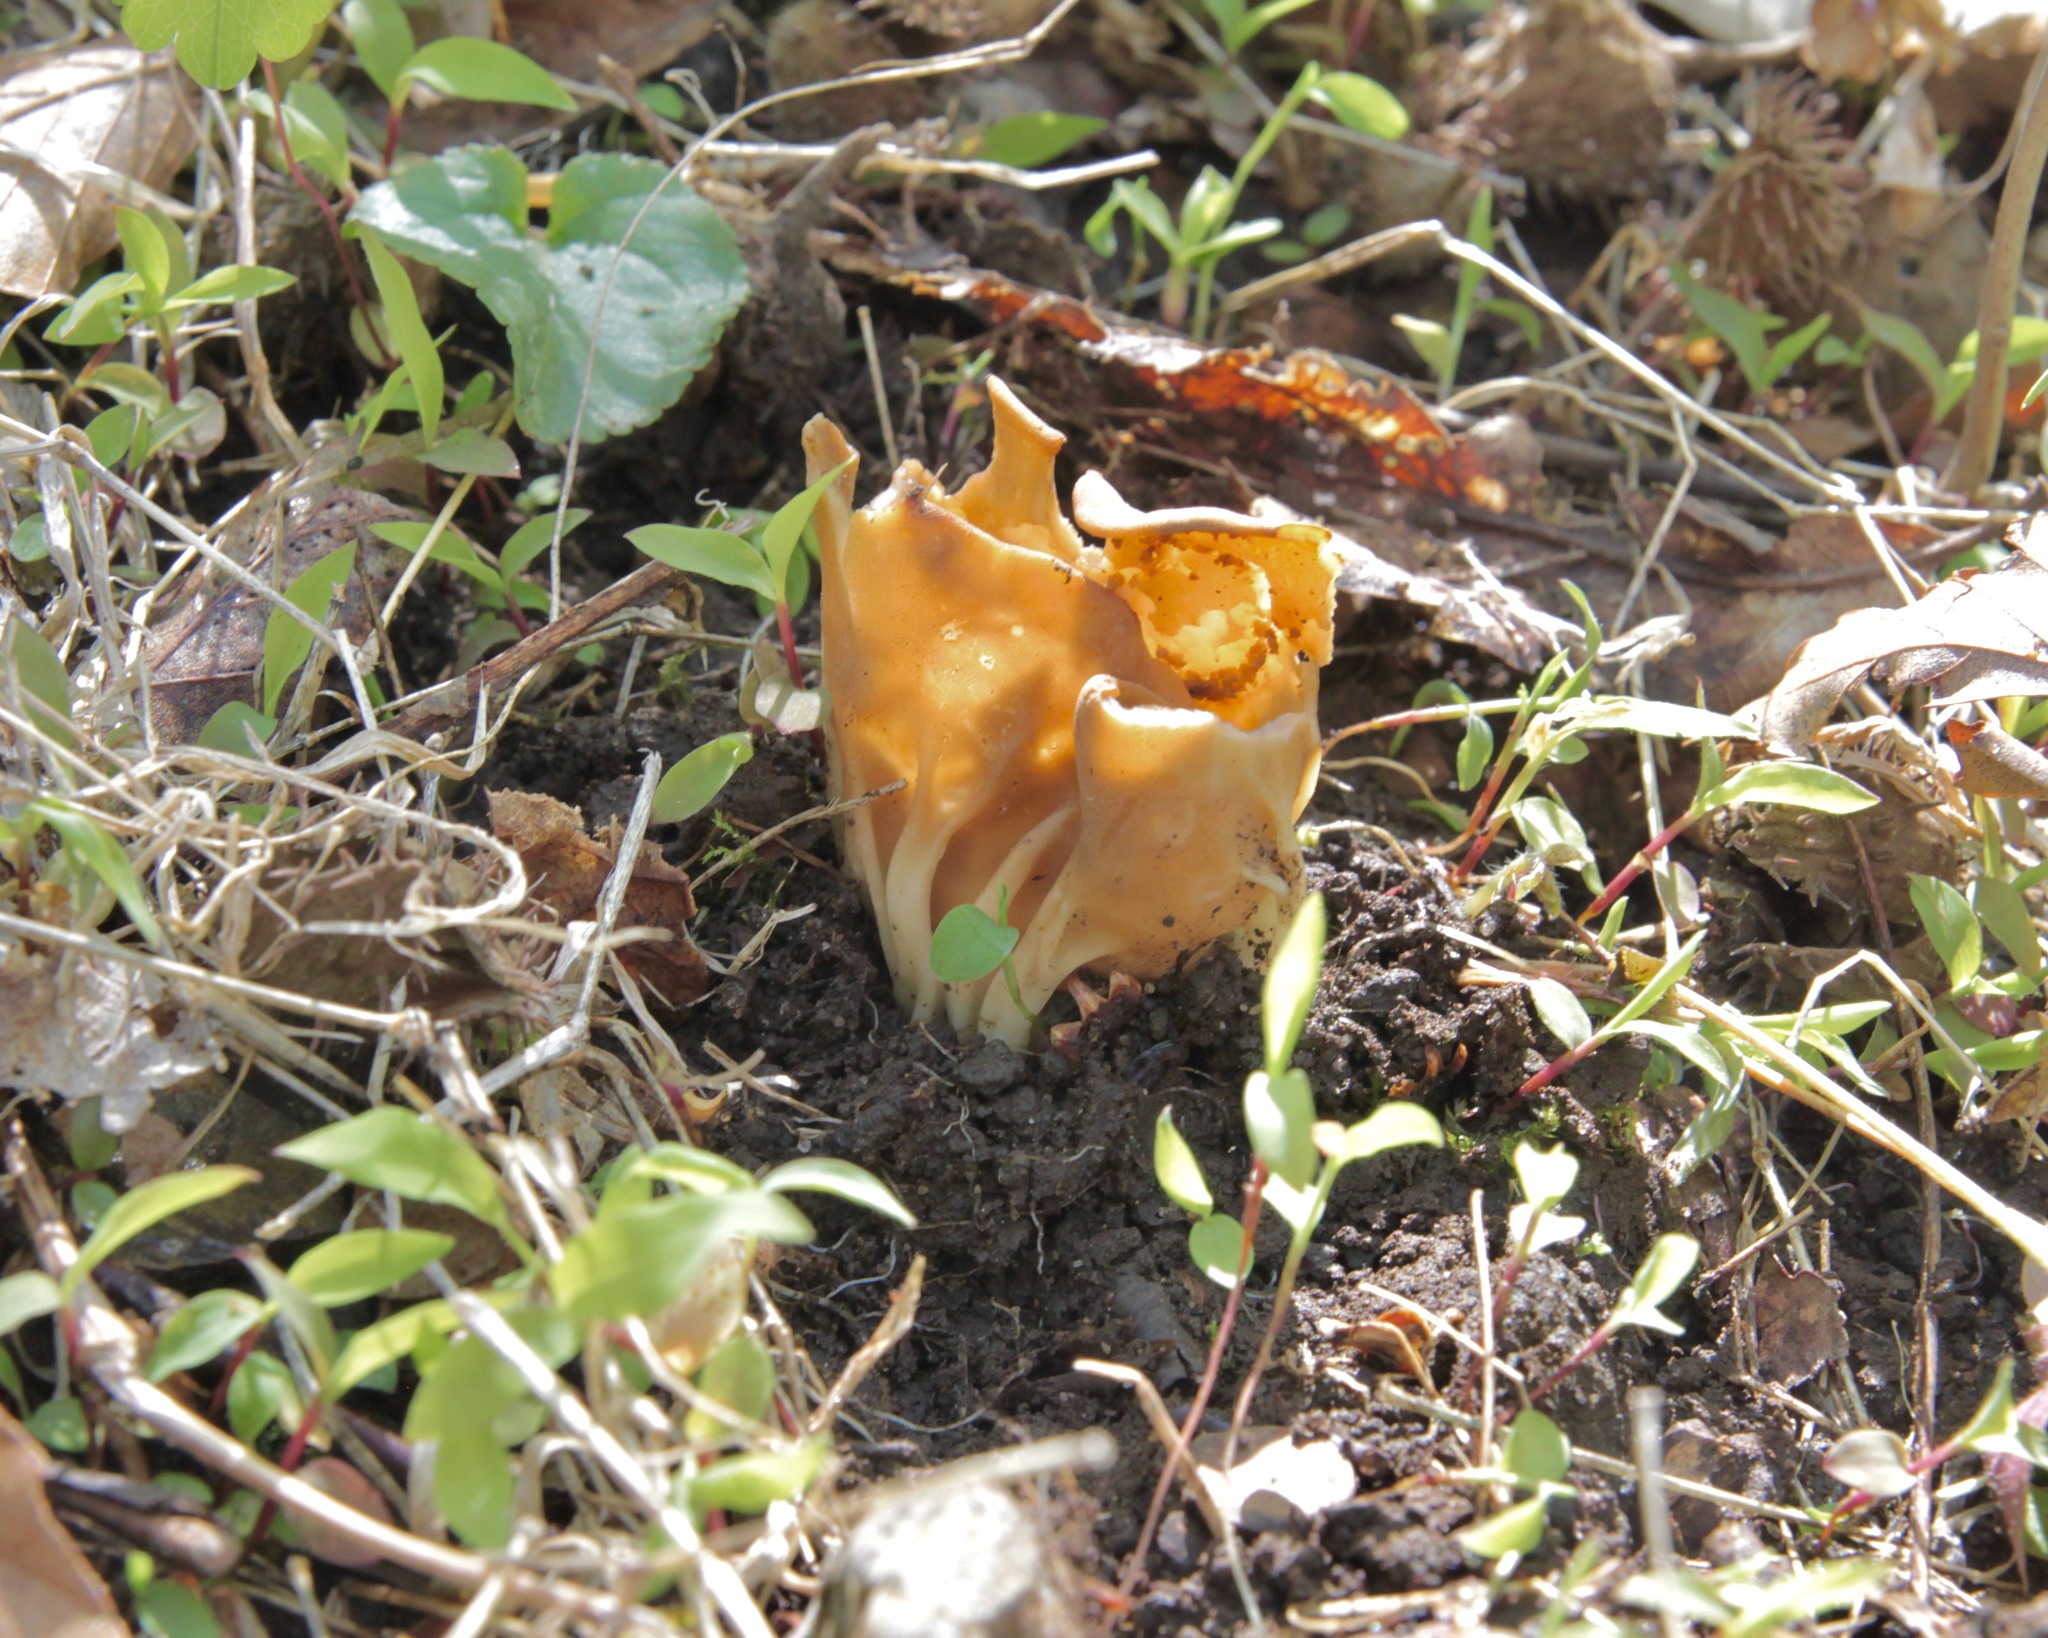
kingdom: Fungi
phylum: Ascomycota
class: Pezizomycetes
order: Pezizales
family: Helvellaceae
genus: Helvella
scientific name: Helvella acetabulum
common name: Vinegar cup
